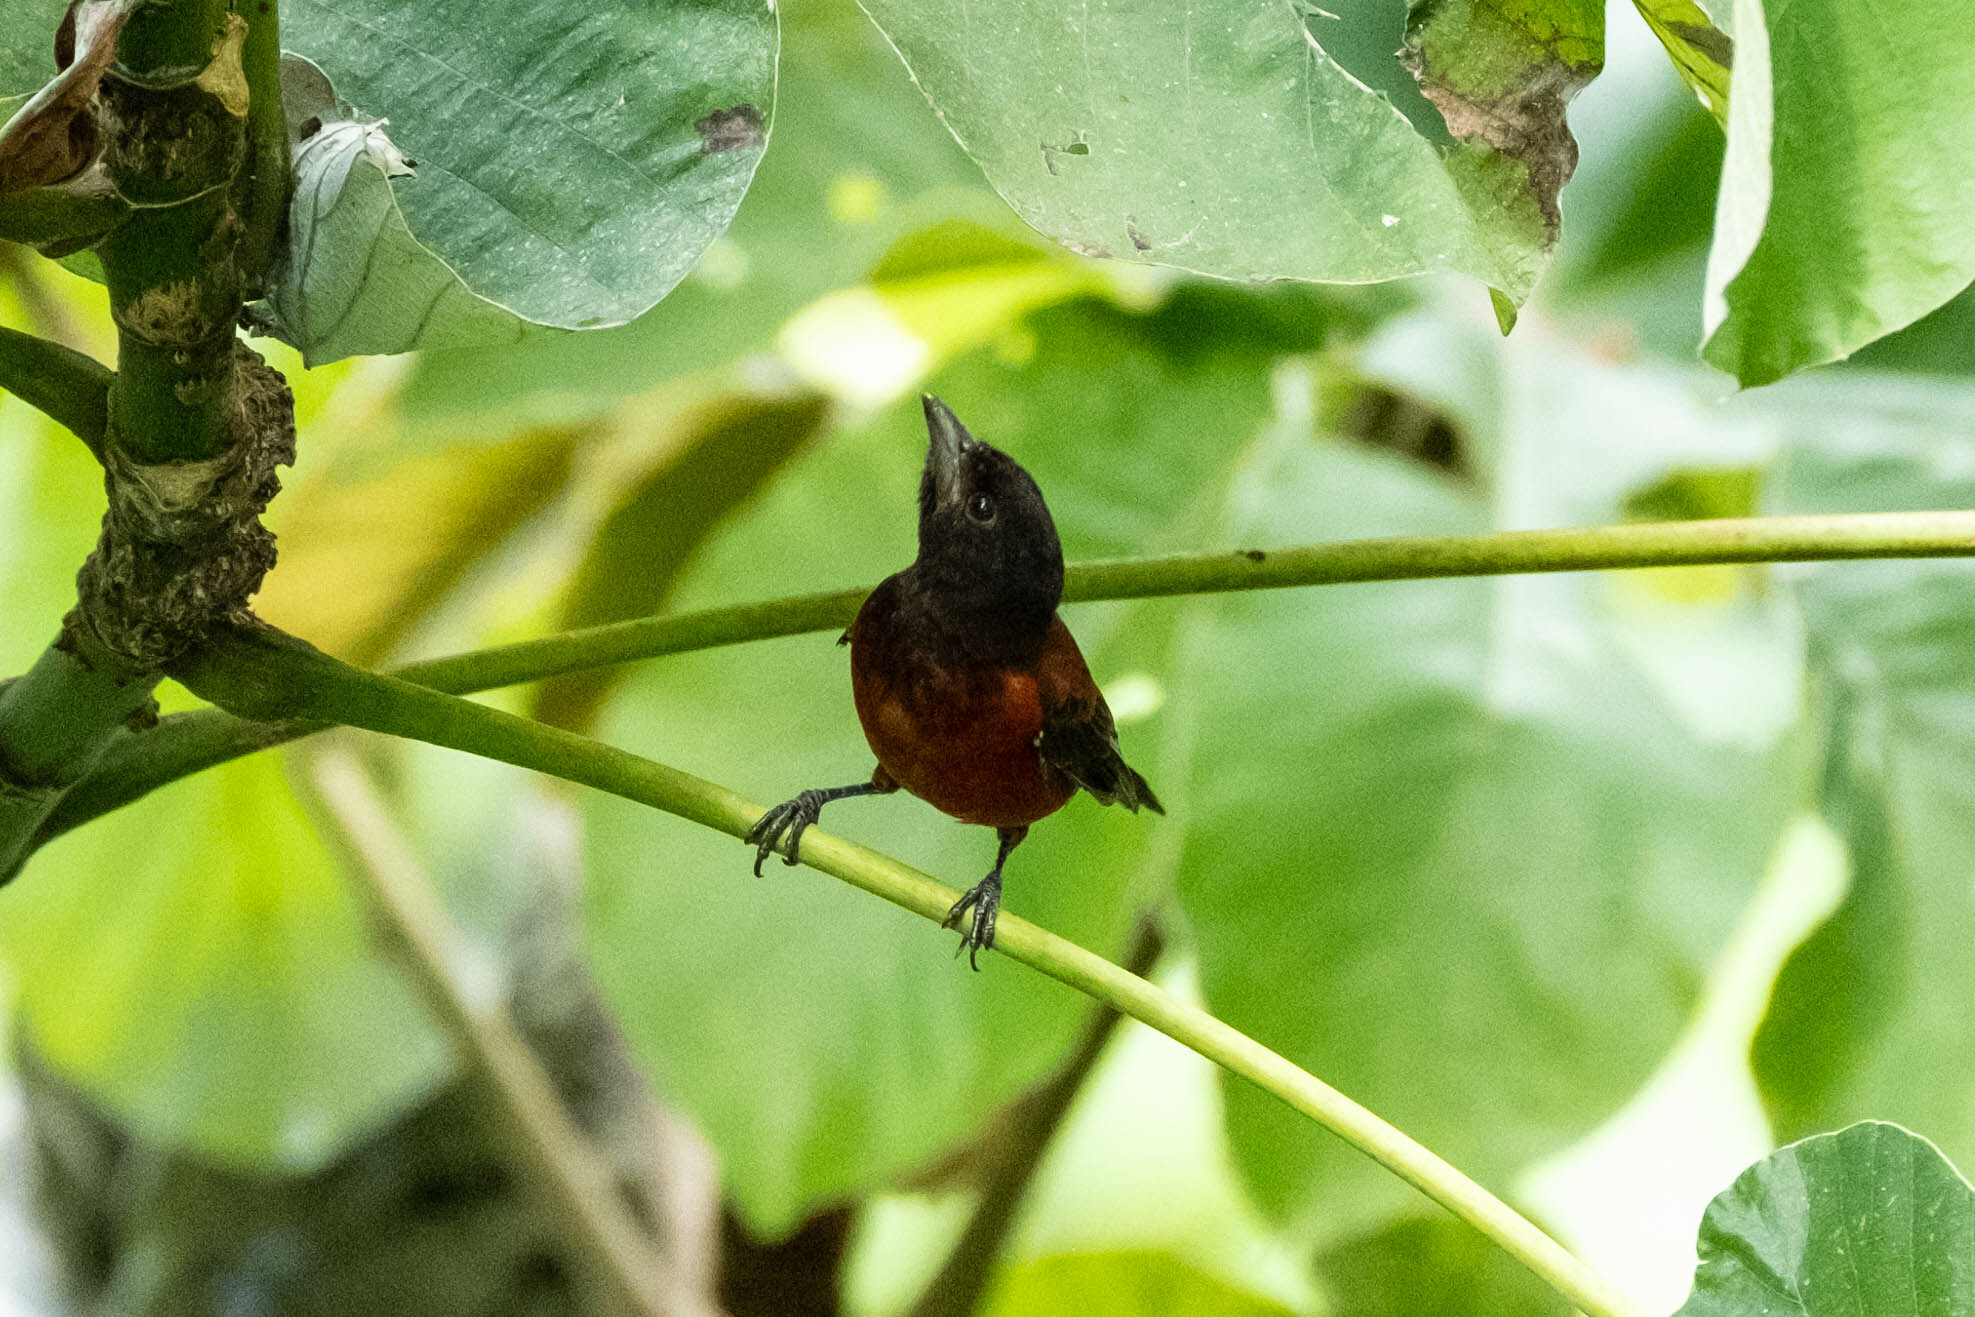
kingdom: Animalia
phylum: Chordata
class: Aves
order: Passeriformes
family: Thraupidae
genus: Ramphocelus
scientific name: Ramphocelus dimidiatus
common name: Crimson-backed tanager
